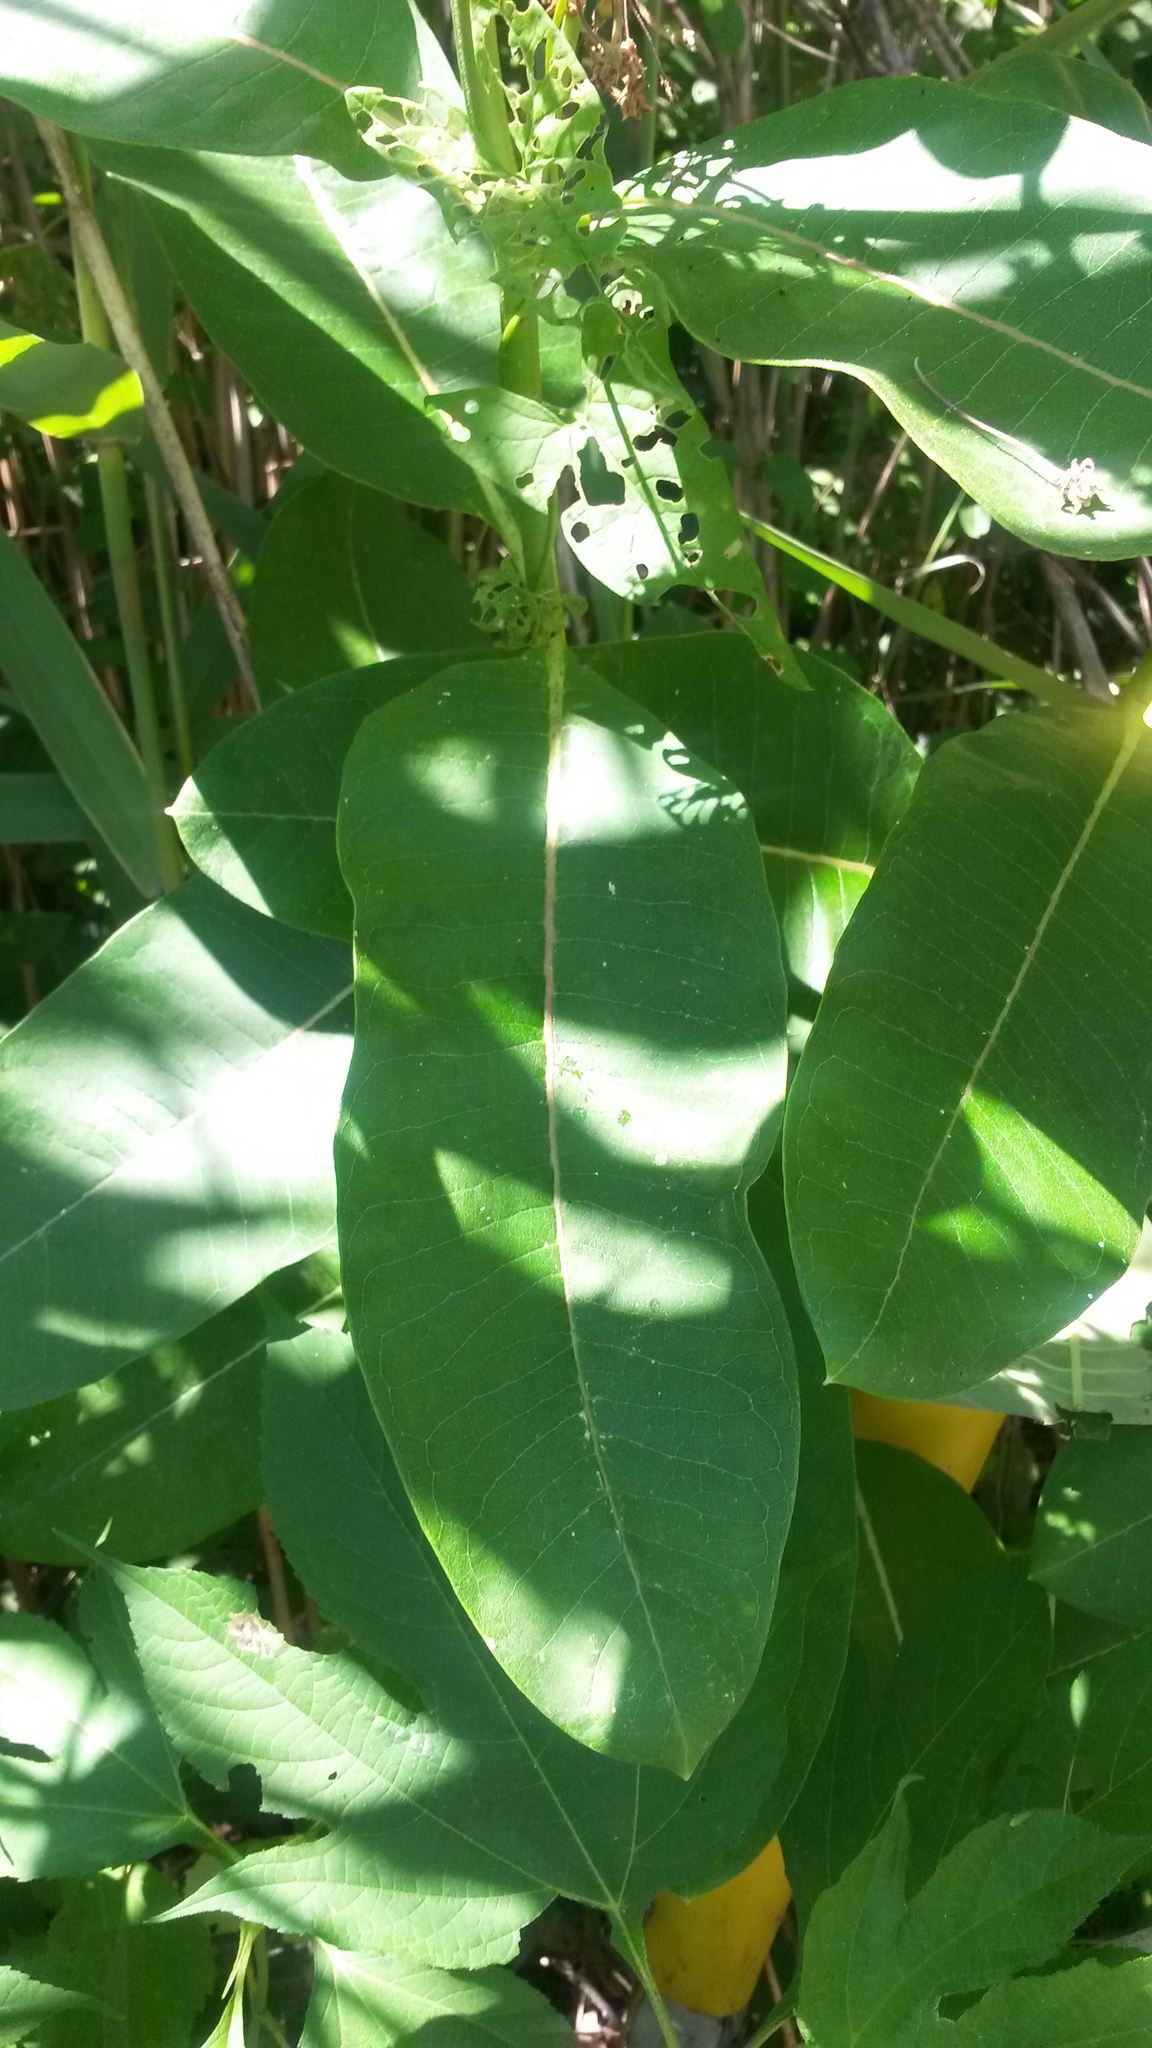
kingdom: Plantae
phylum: Tracheophyta
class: Magnoliopsida
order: Gentianales
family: Apocynaceae
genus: Asclepias
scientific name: Asclepias syriaca
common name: Common milkweed
